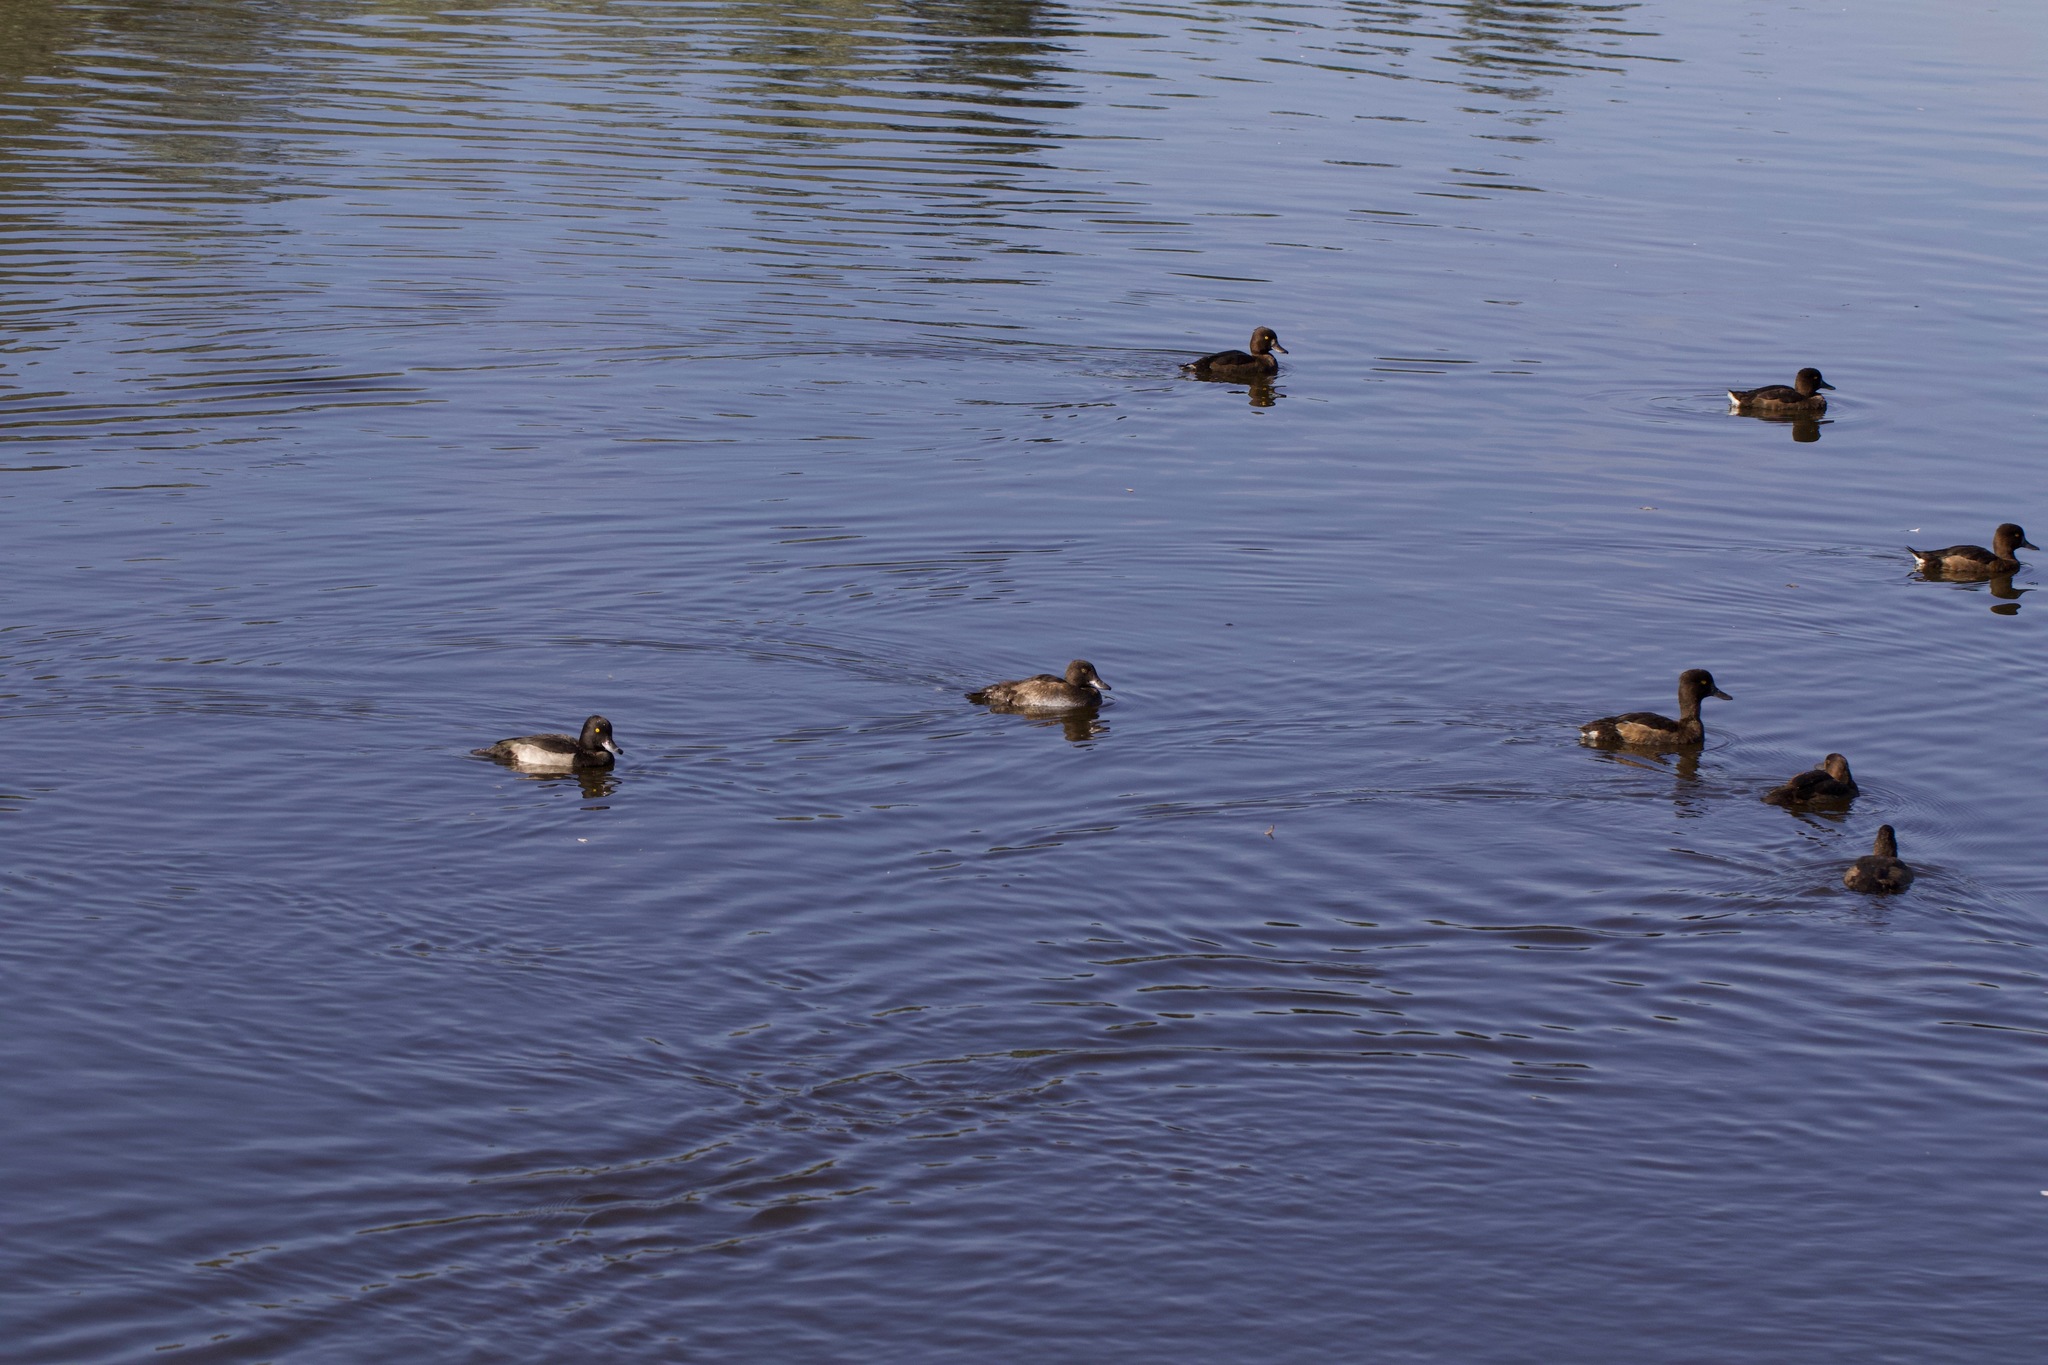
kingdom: Animalia
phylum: Chordata
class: Aves
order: Anseriformes
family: Anatidae
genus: Aythya
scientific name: Aythya fuligula
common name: Tufted duck
